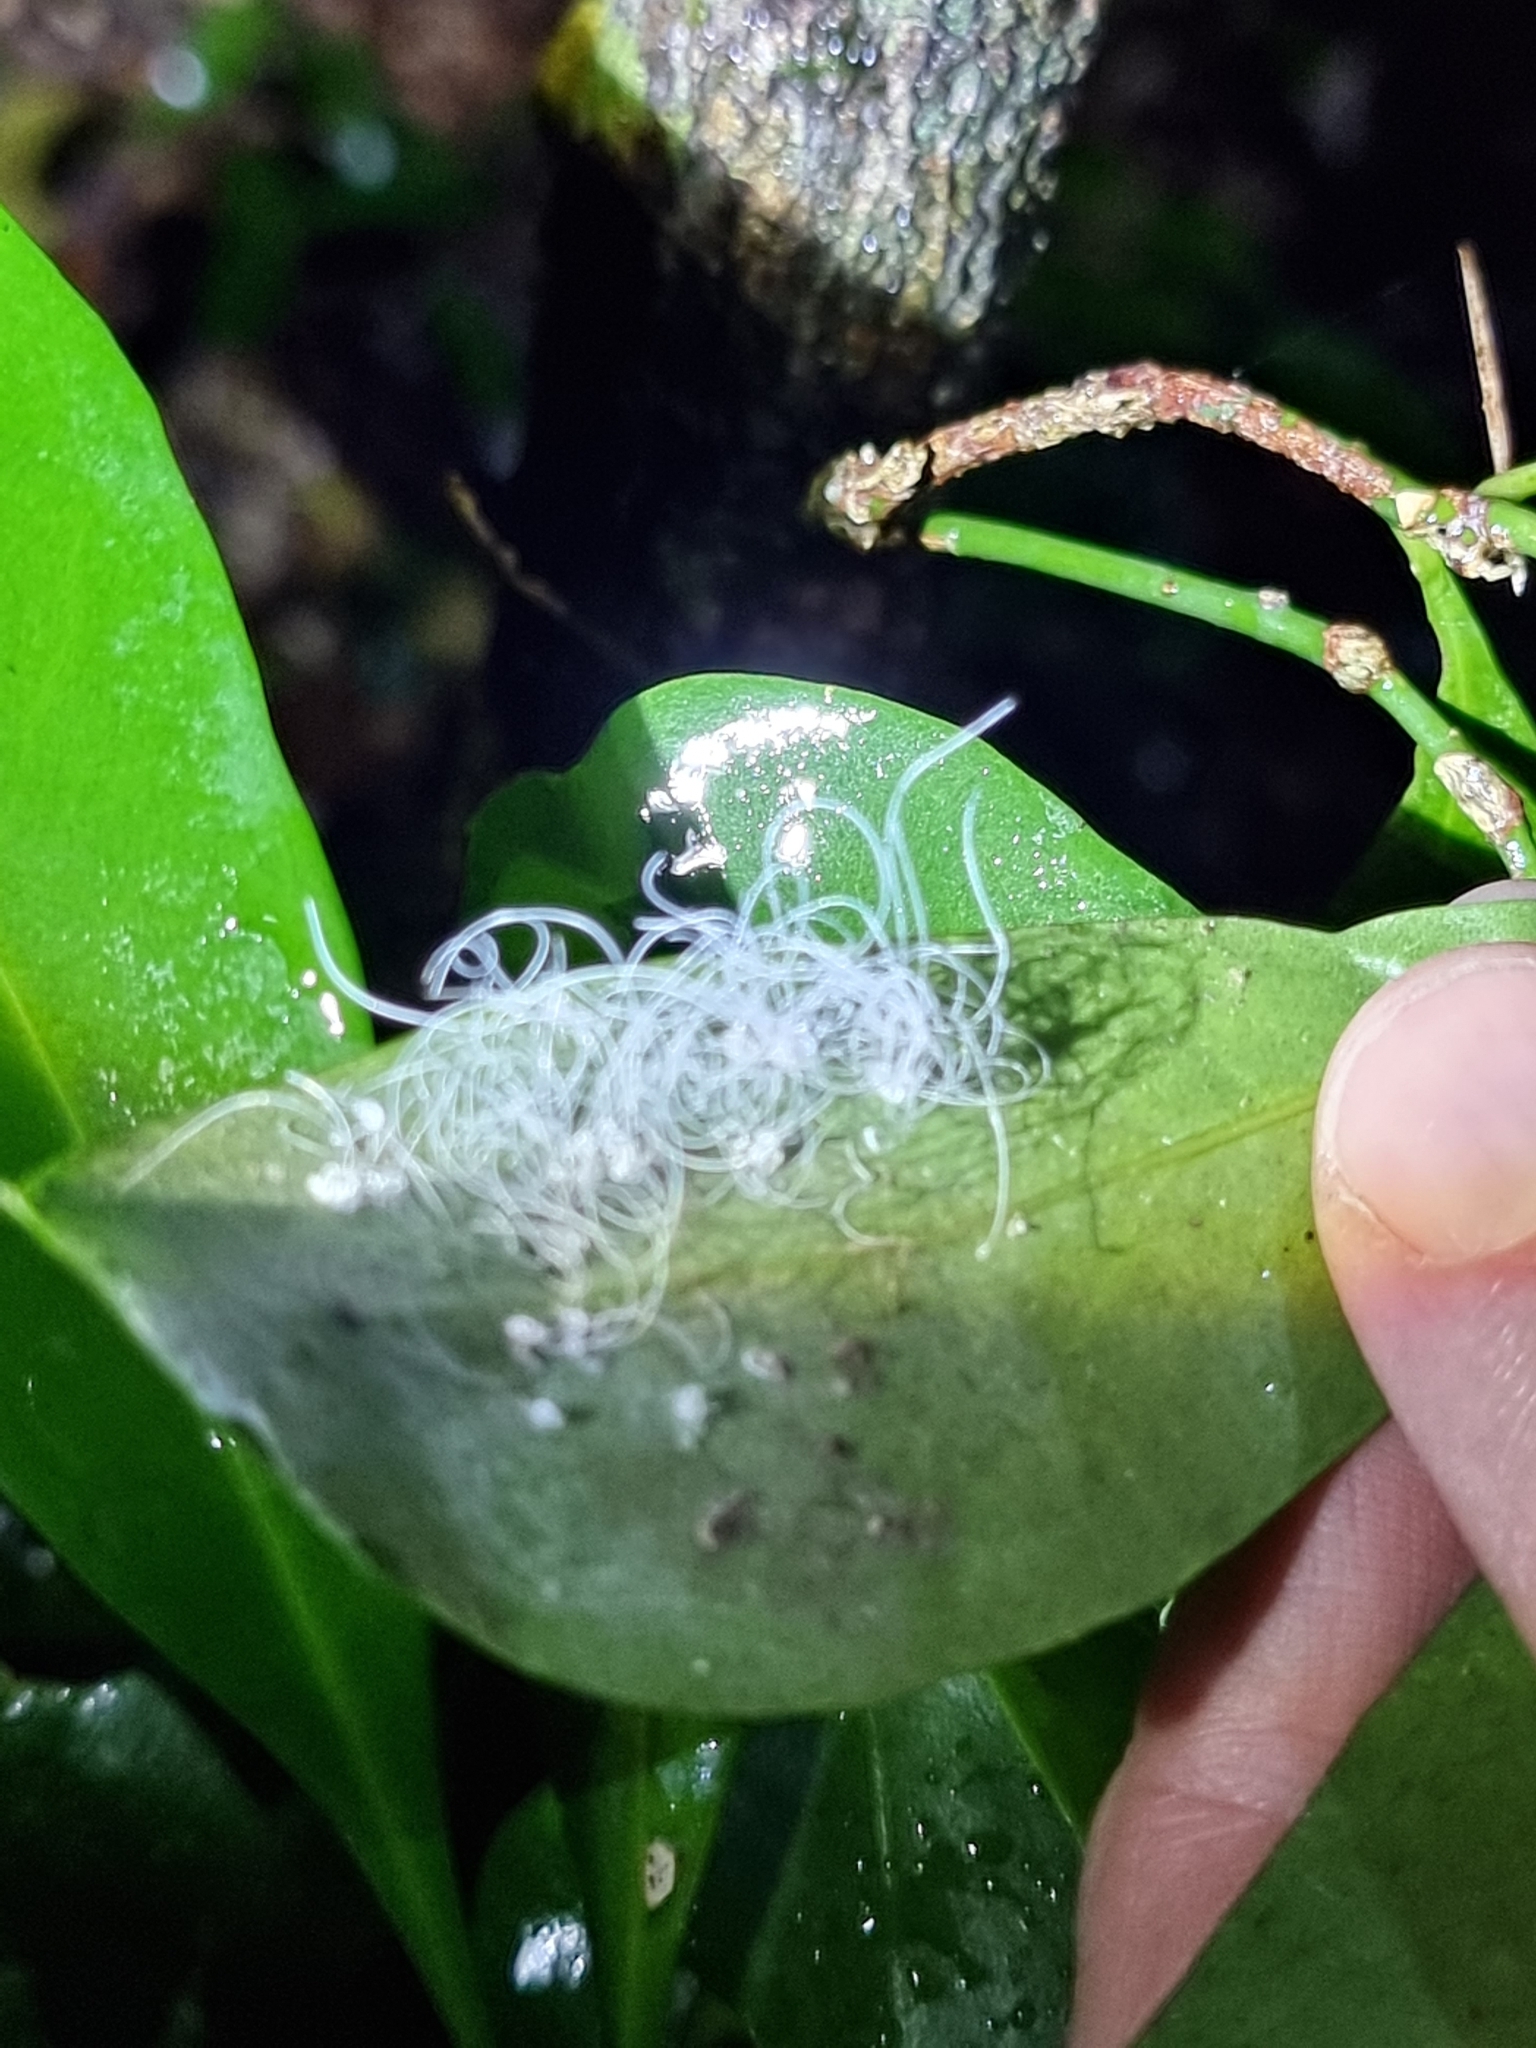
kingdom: Animalia
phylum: Arthropoda
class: Insecta
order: Hemiptera
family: Aleyrodidae
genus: Aleuroctarthrus
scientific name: Aleuroctarthrus
